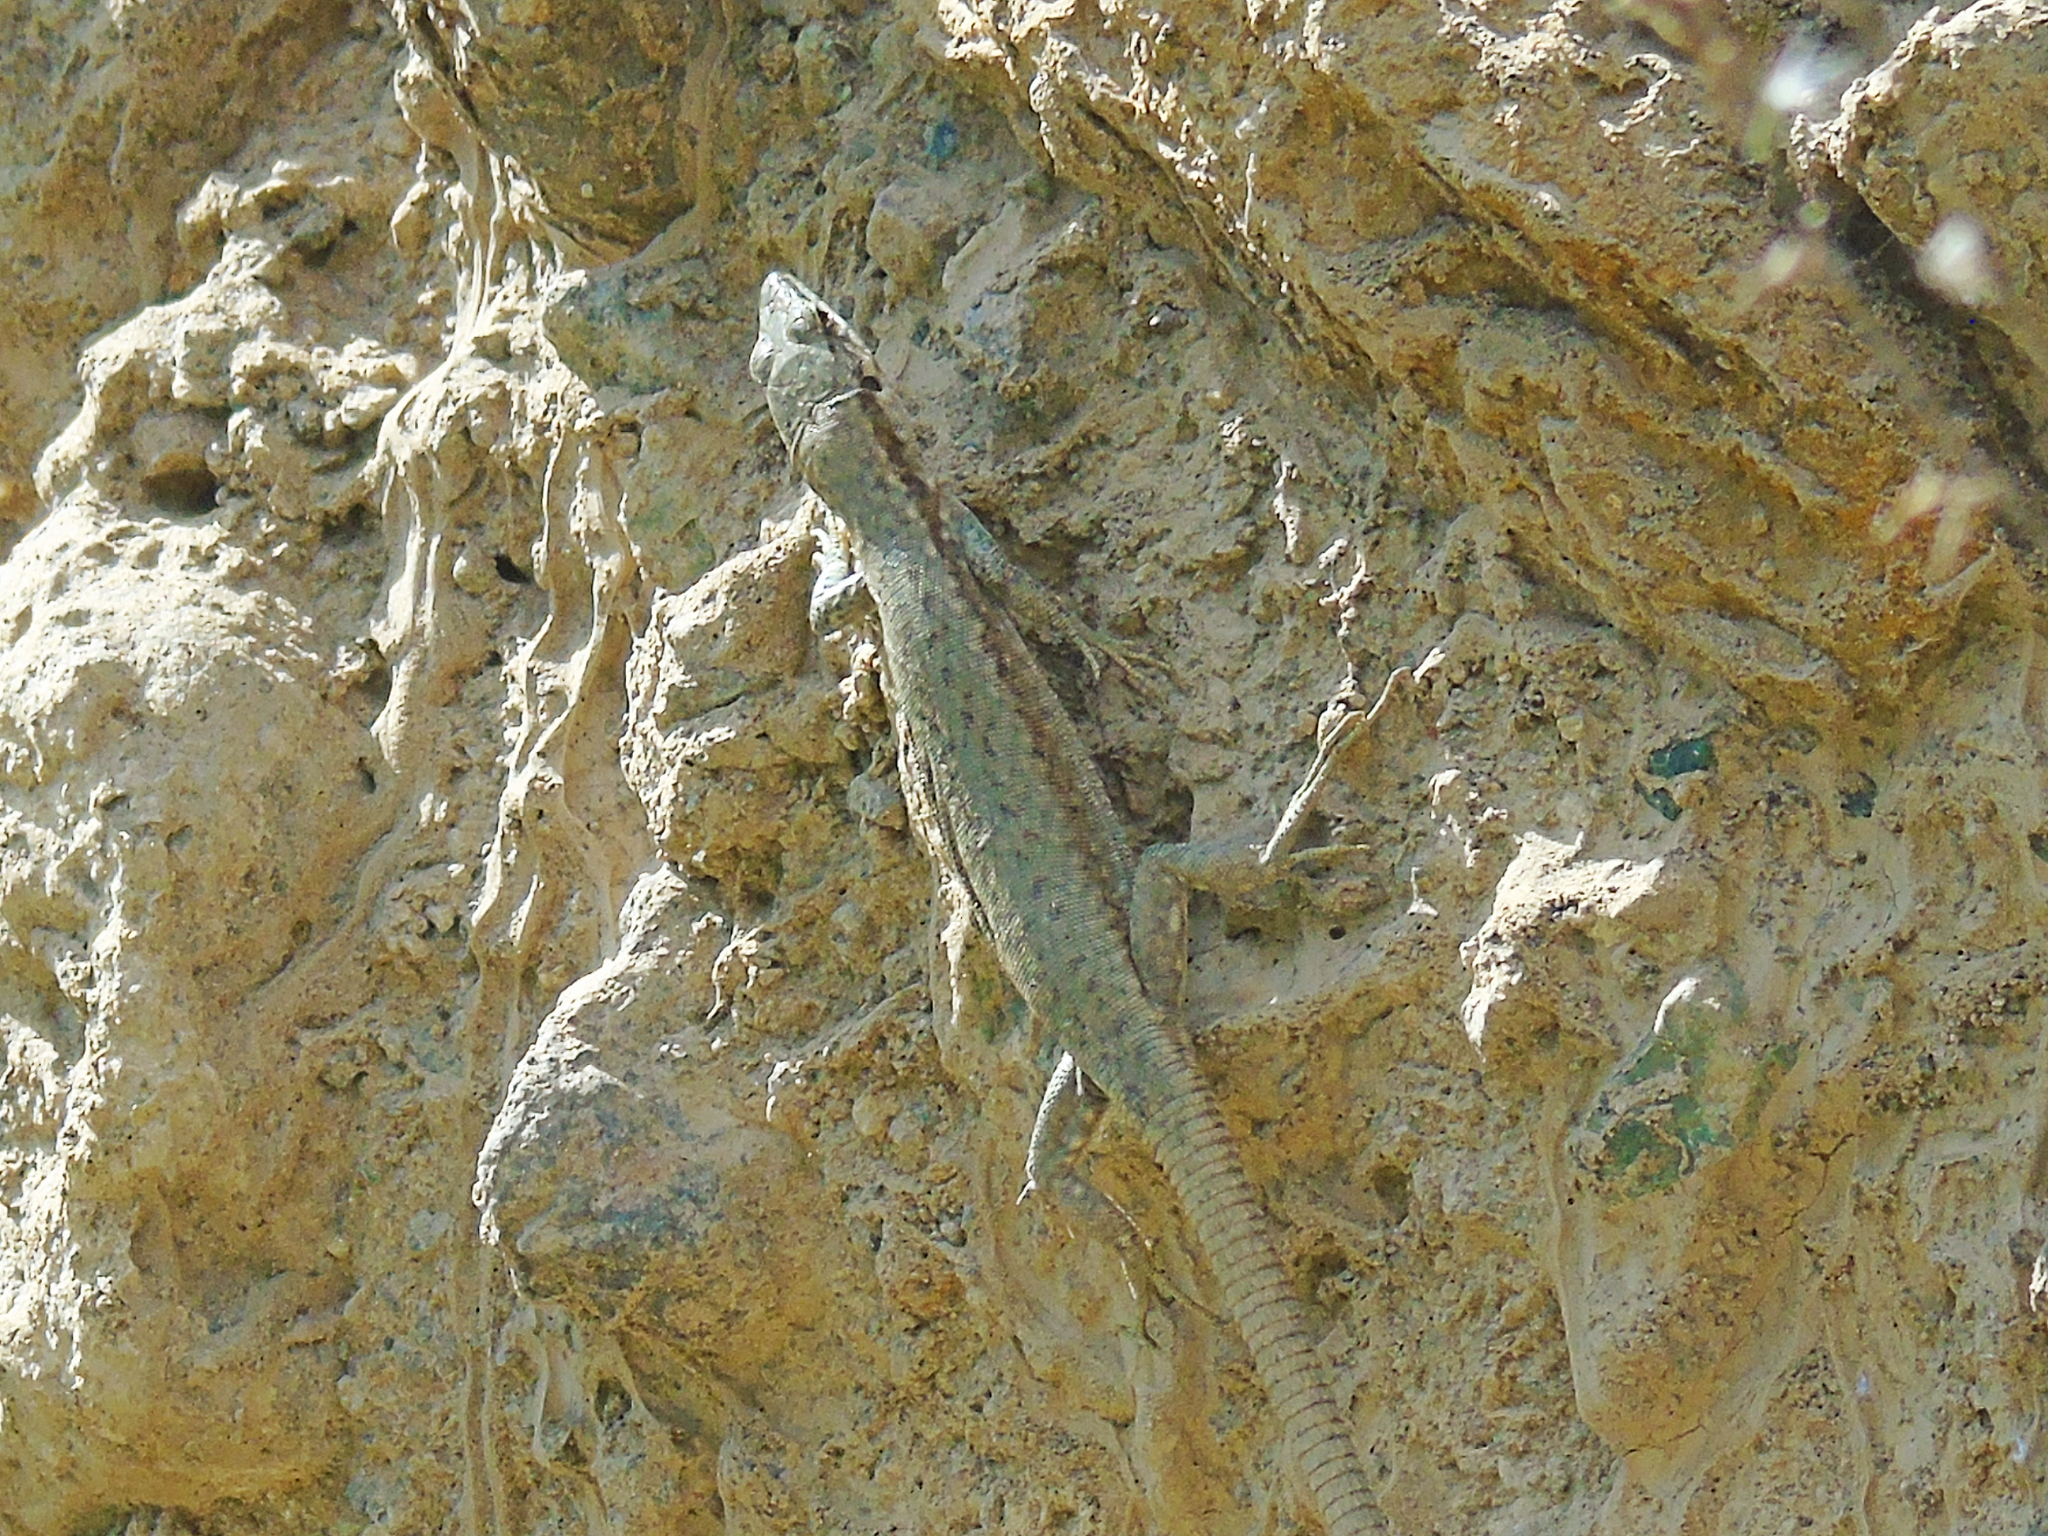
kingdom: Animalia
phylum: Chordata
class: Squamata
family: Lacertidae
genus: Darevskia
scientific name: Darevskia
